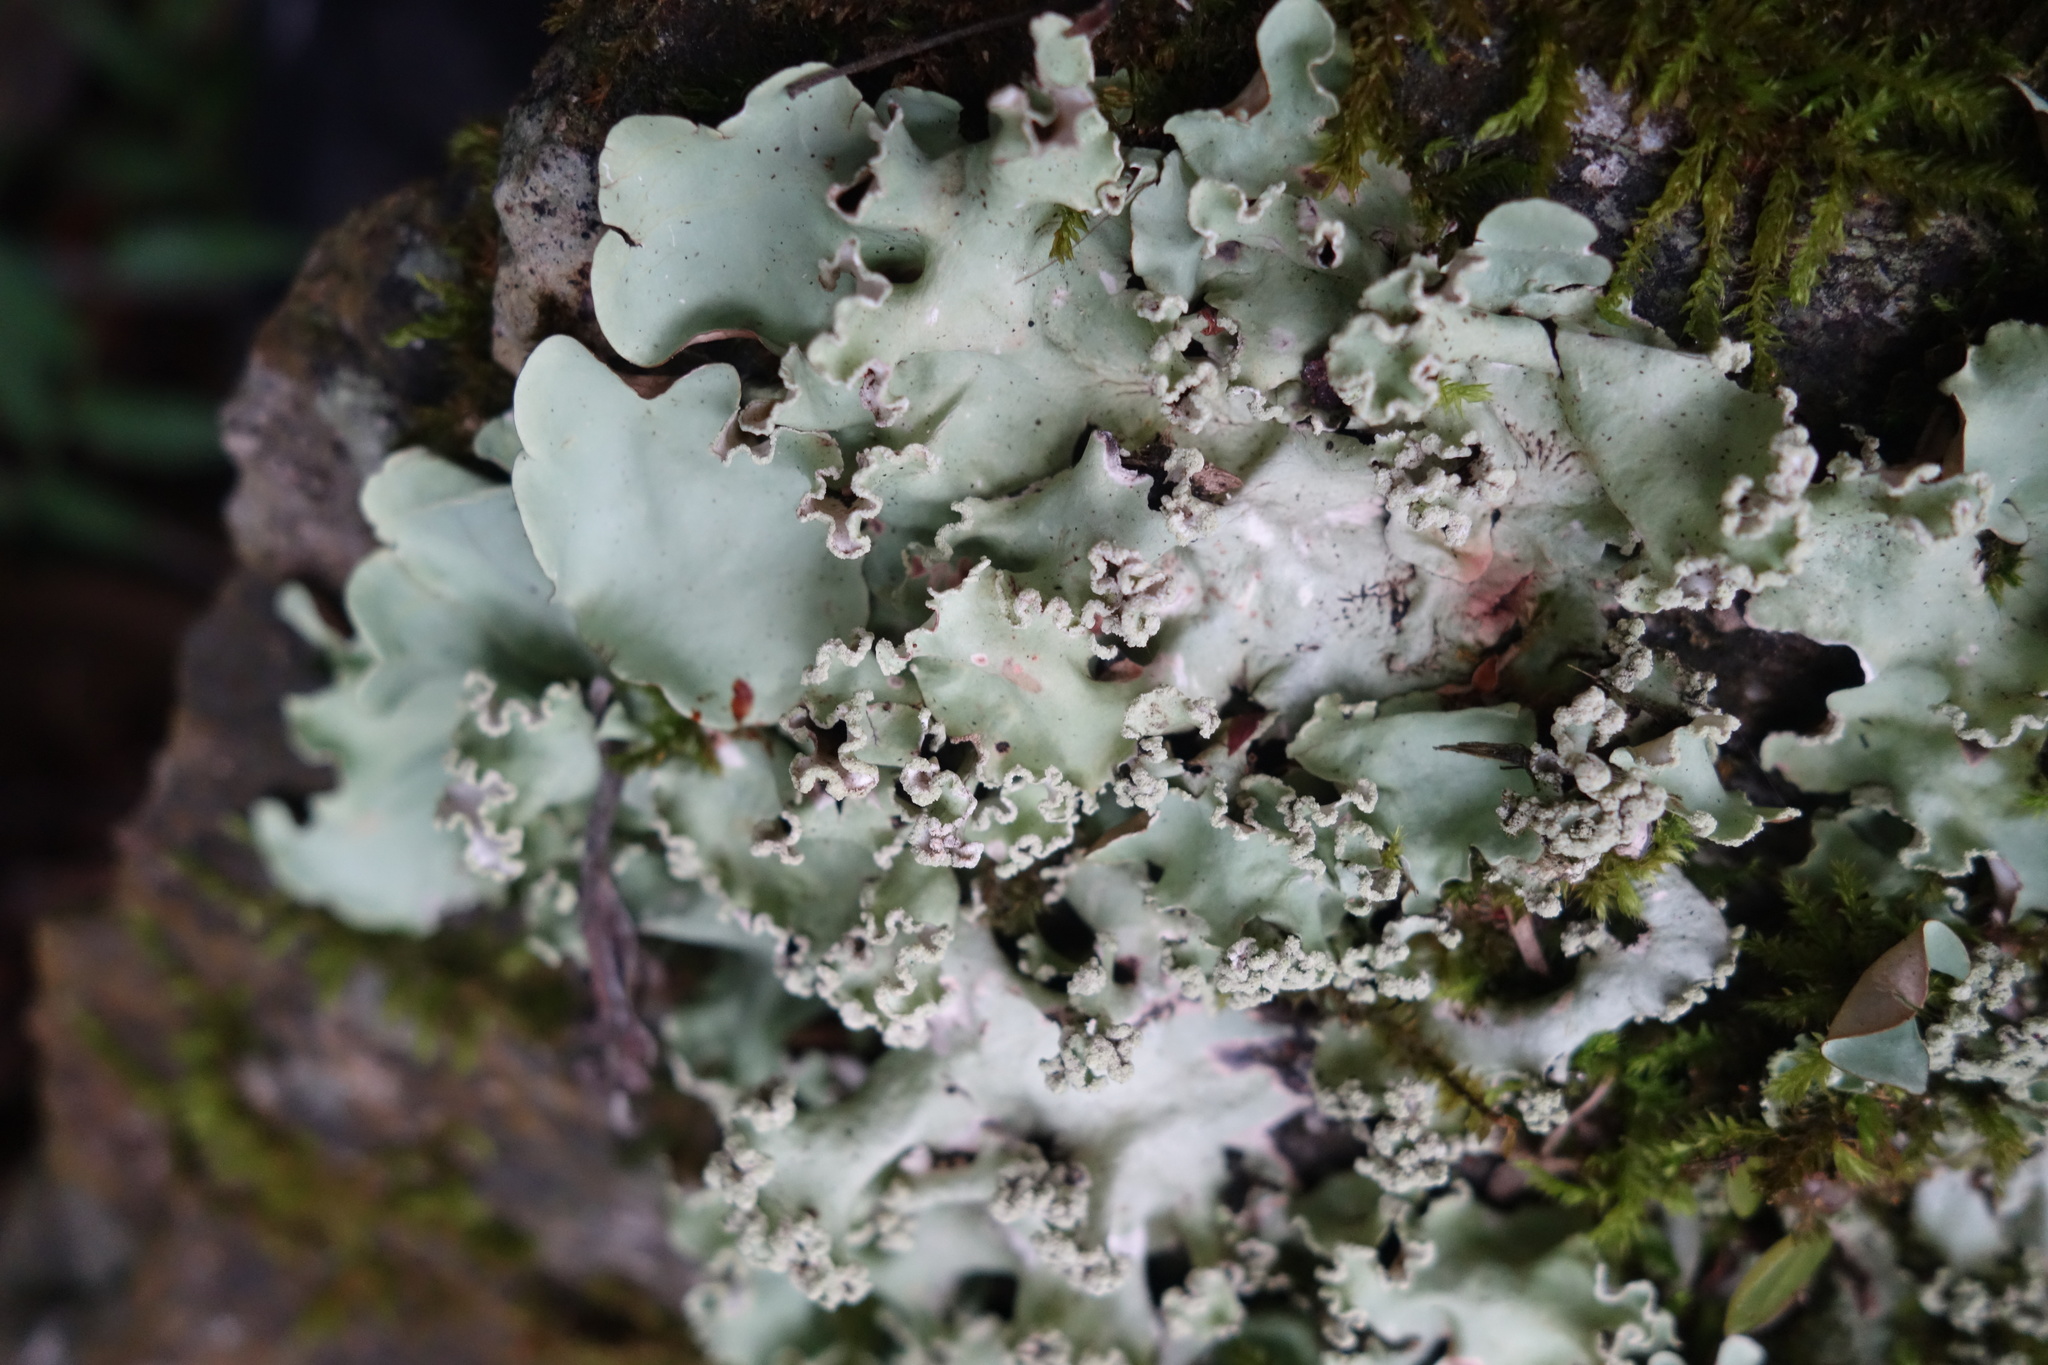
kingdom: Fungi
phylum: Ascomycota
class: Lecanoromycetes
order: Lecanorales
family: Parmeliaceae
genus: Parmotrema
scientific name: Parmotrema austrosinense
